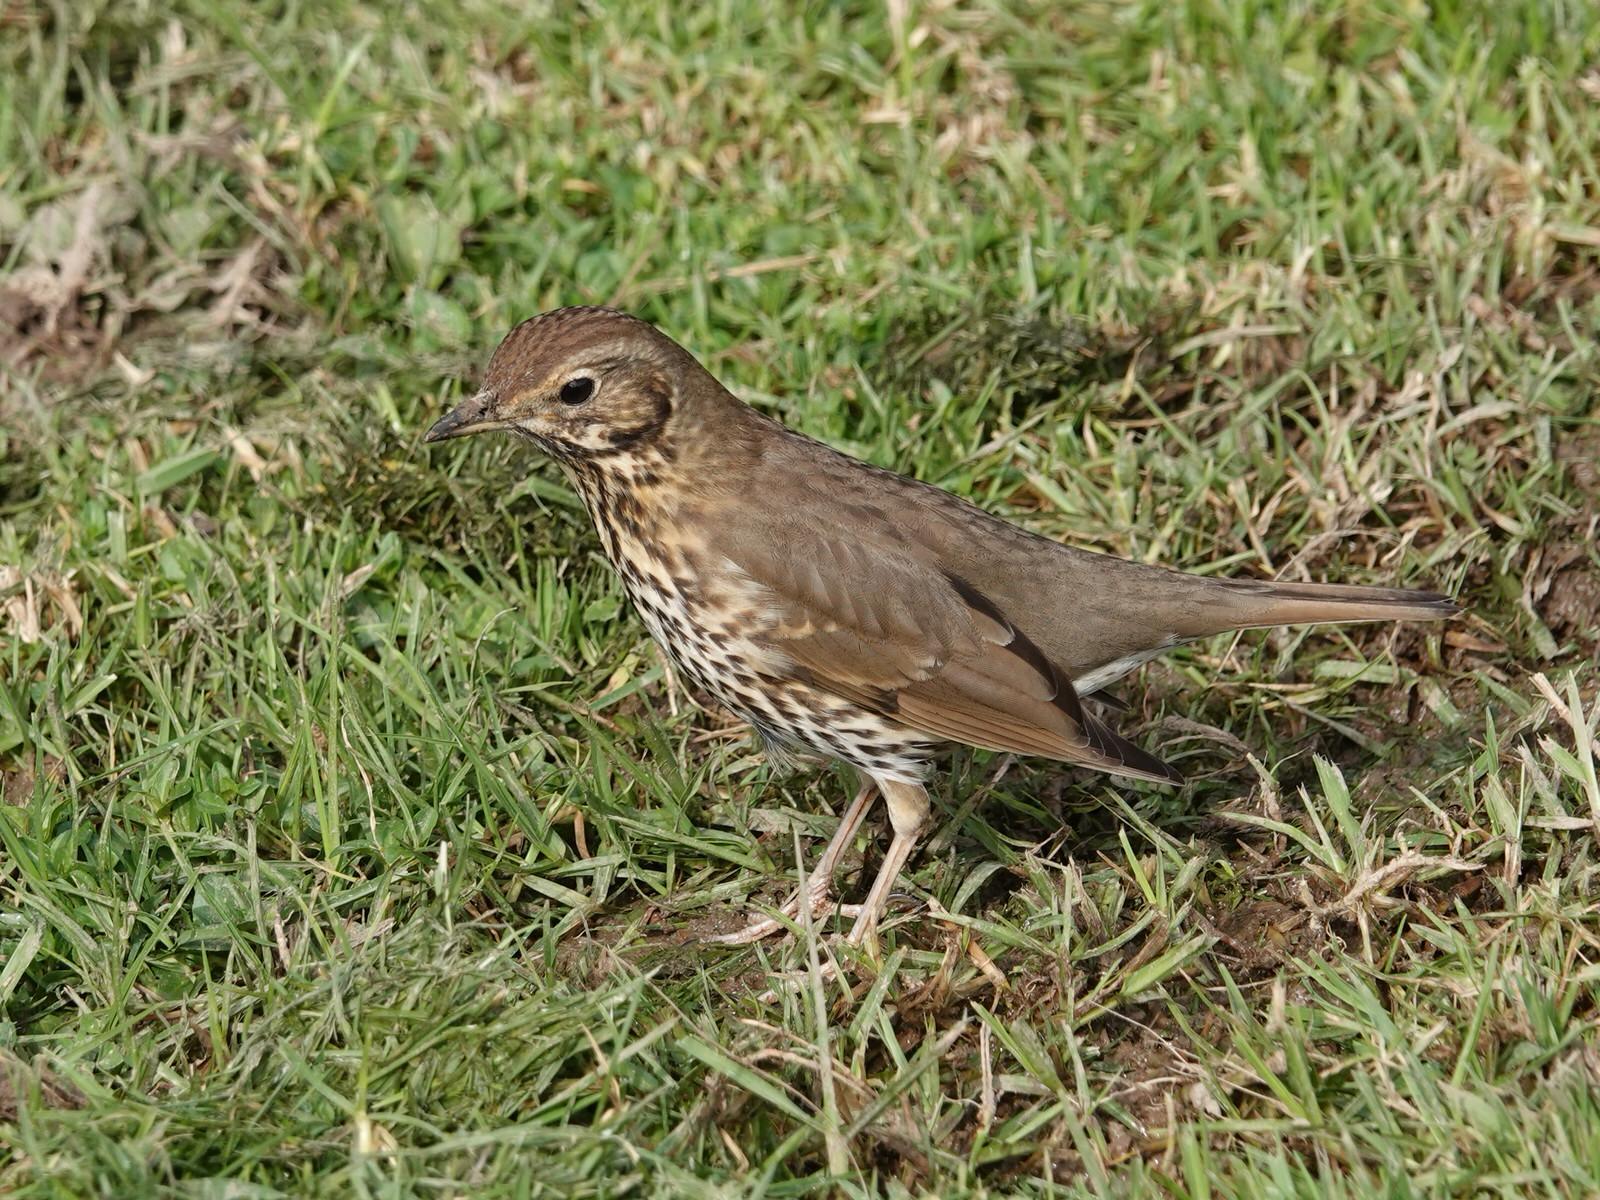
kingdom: Animalia
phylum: Chordata
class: Aves
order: Passeriformes
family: Turdidae
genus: Turdus
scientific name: Turdus philomelos
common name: Song thrush
